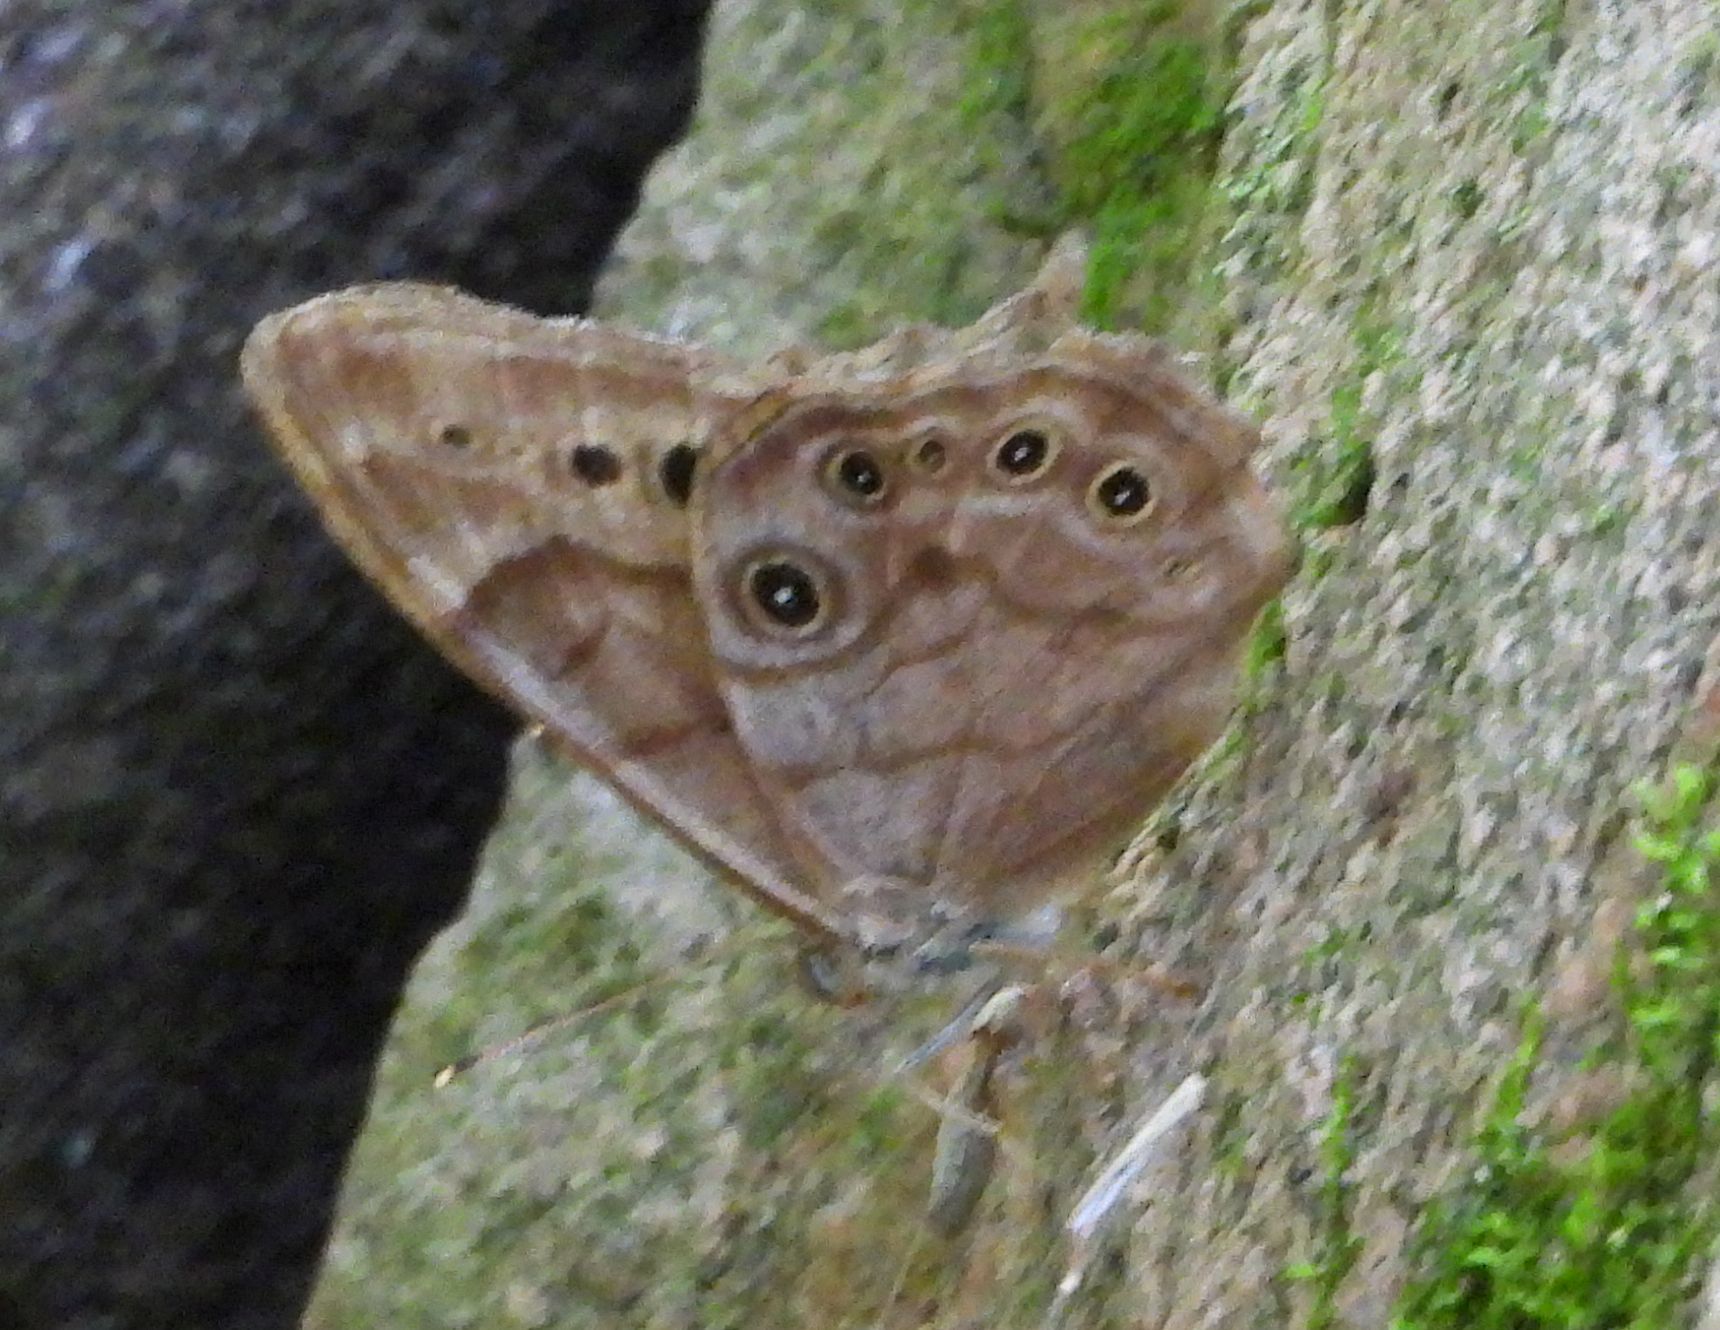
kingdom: Animalia
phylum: Arthropoda
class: Insecta
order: Lepidoptera
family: Nymphalidae
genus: Lethe
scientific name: Lethe anthedon
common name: Northern pearly-eye
